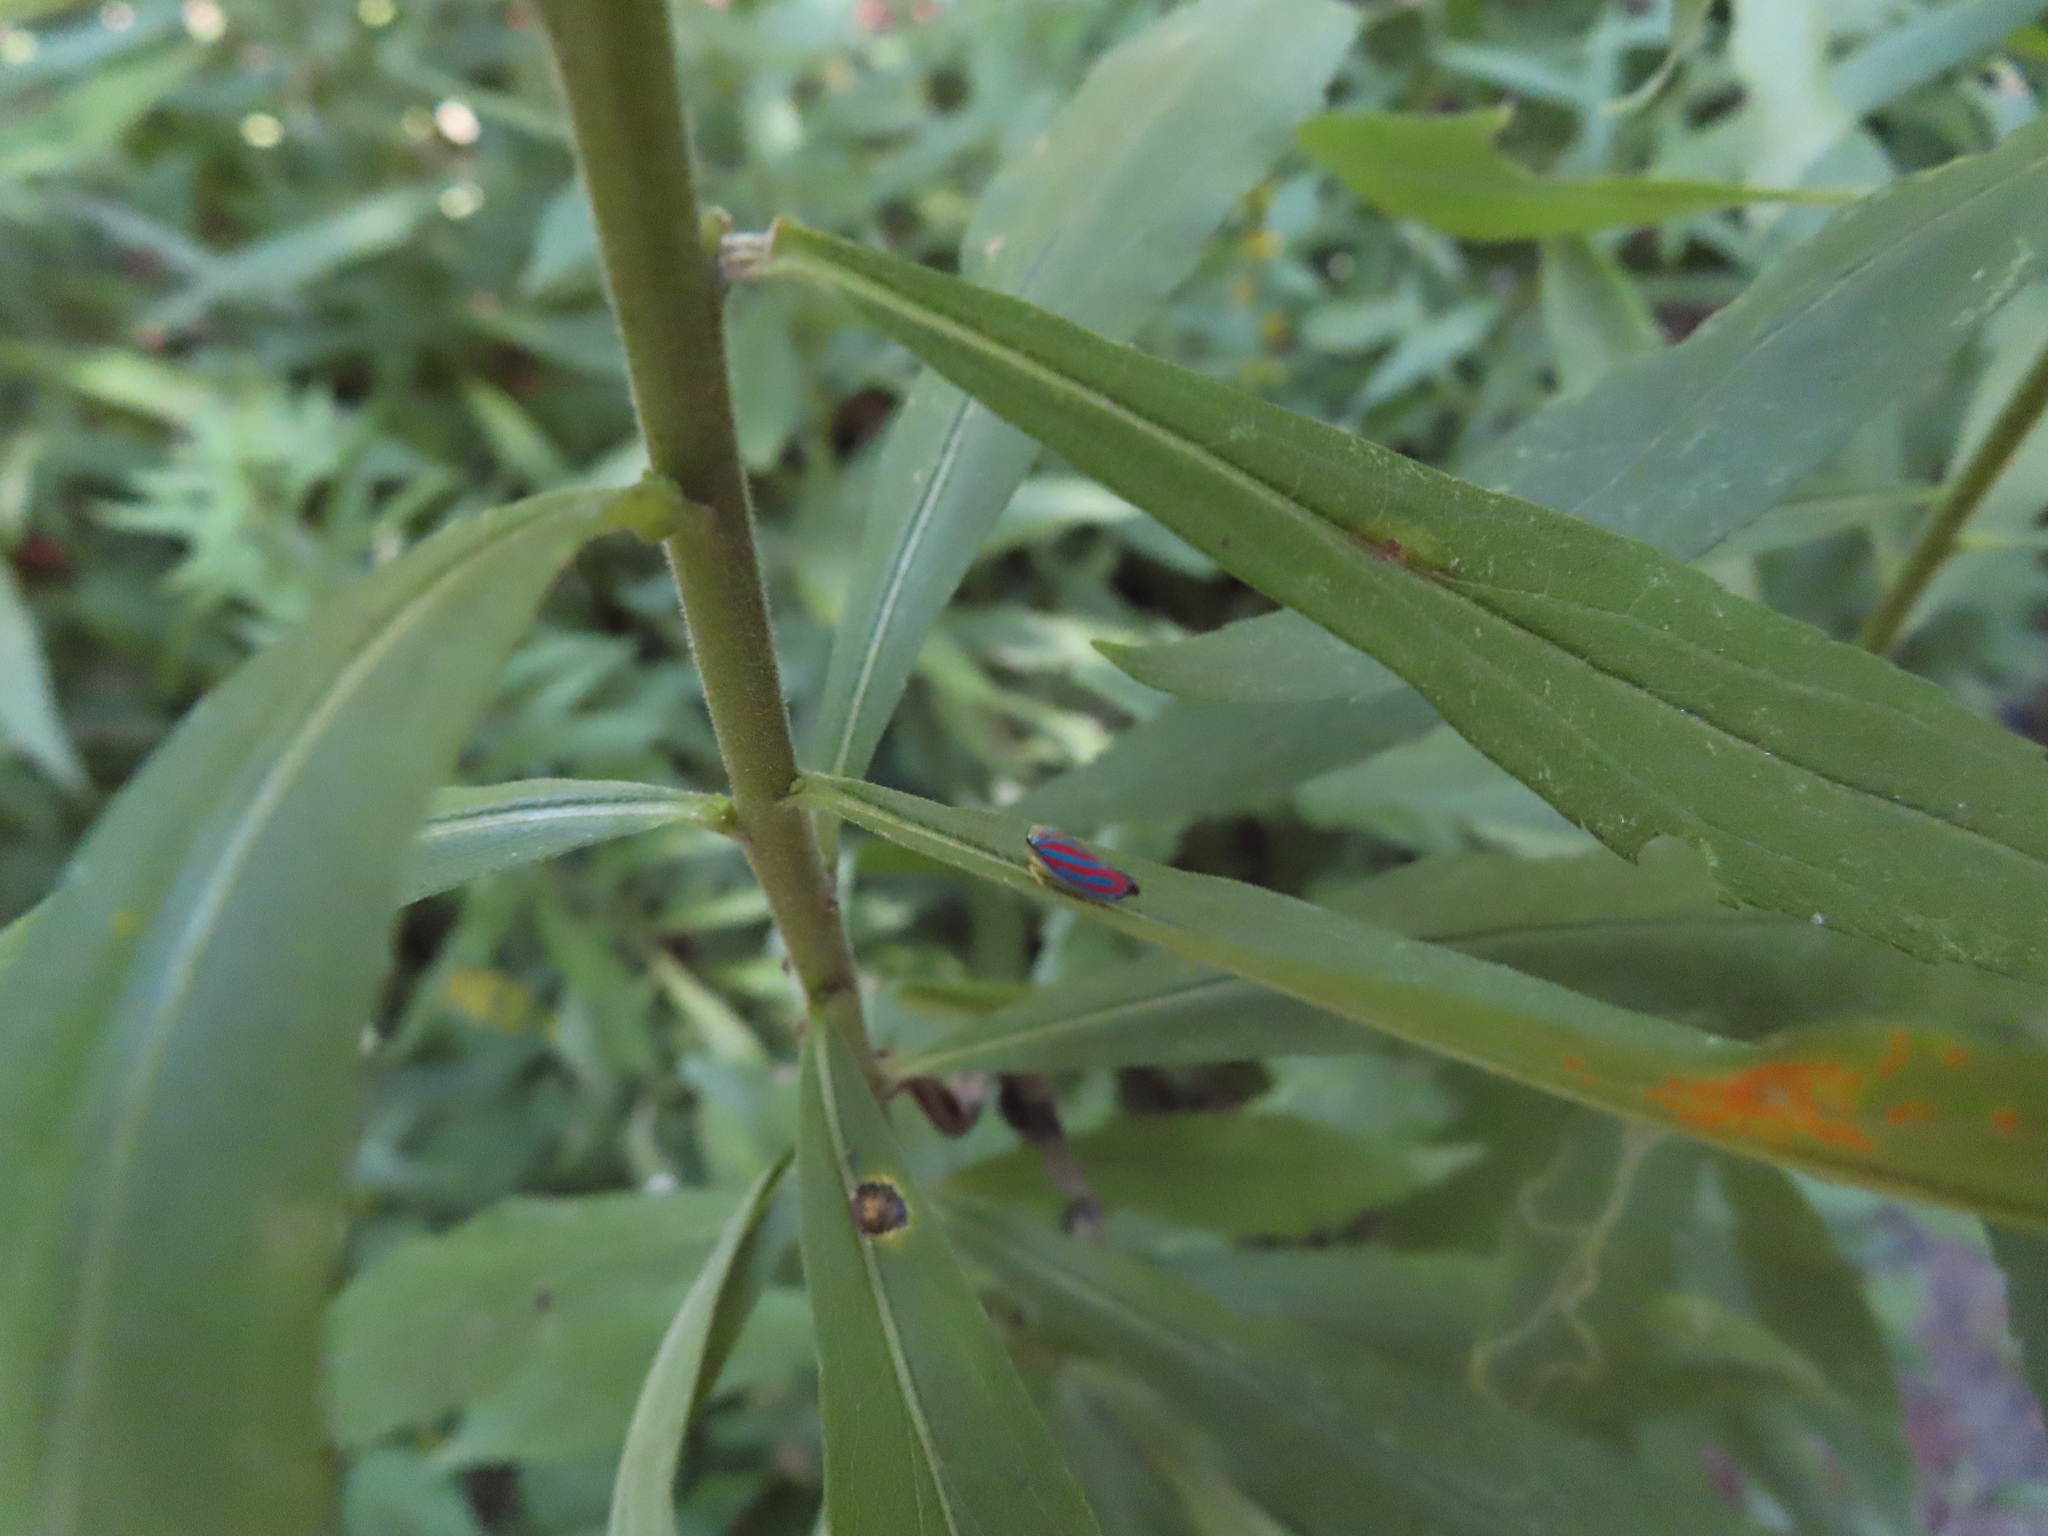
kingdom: Animalia
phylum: Arthropoda
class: Insecta
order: Hemiptera
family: Cicadellidae
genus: Graphocephala
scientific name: Graphocephala coccinea
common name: Candy-striped leafhopper
